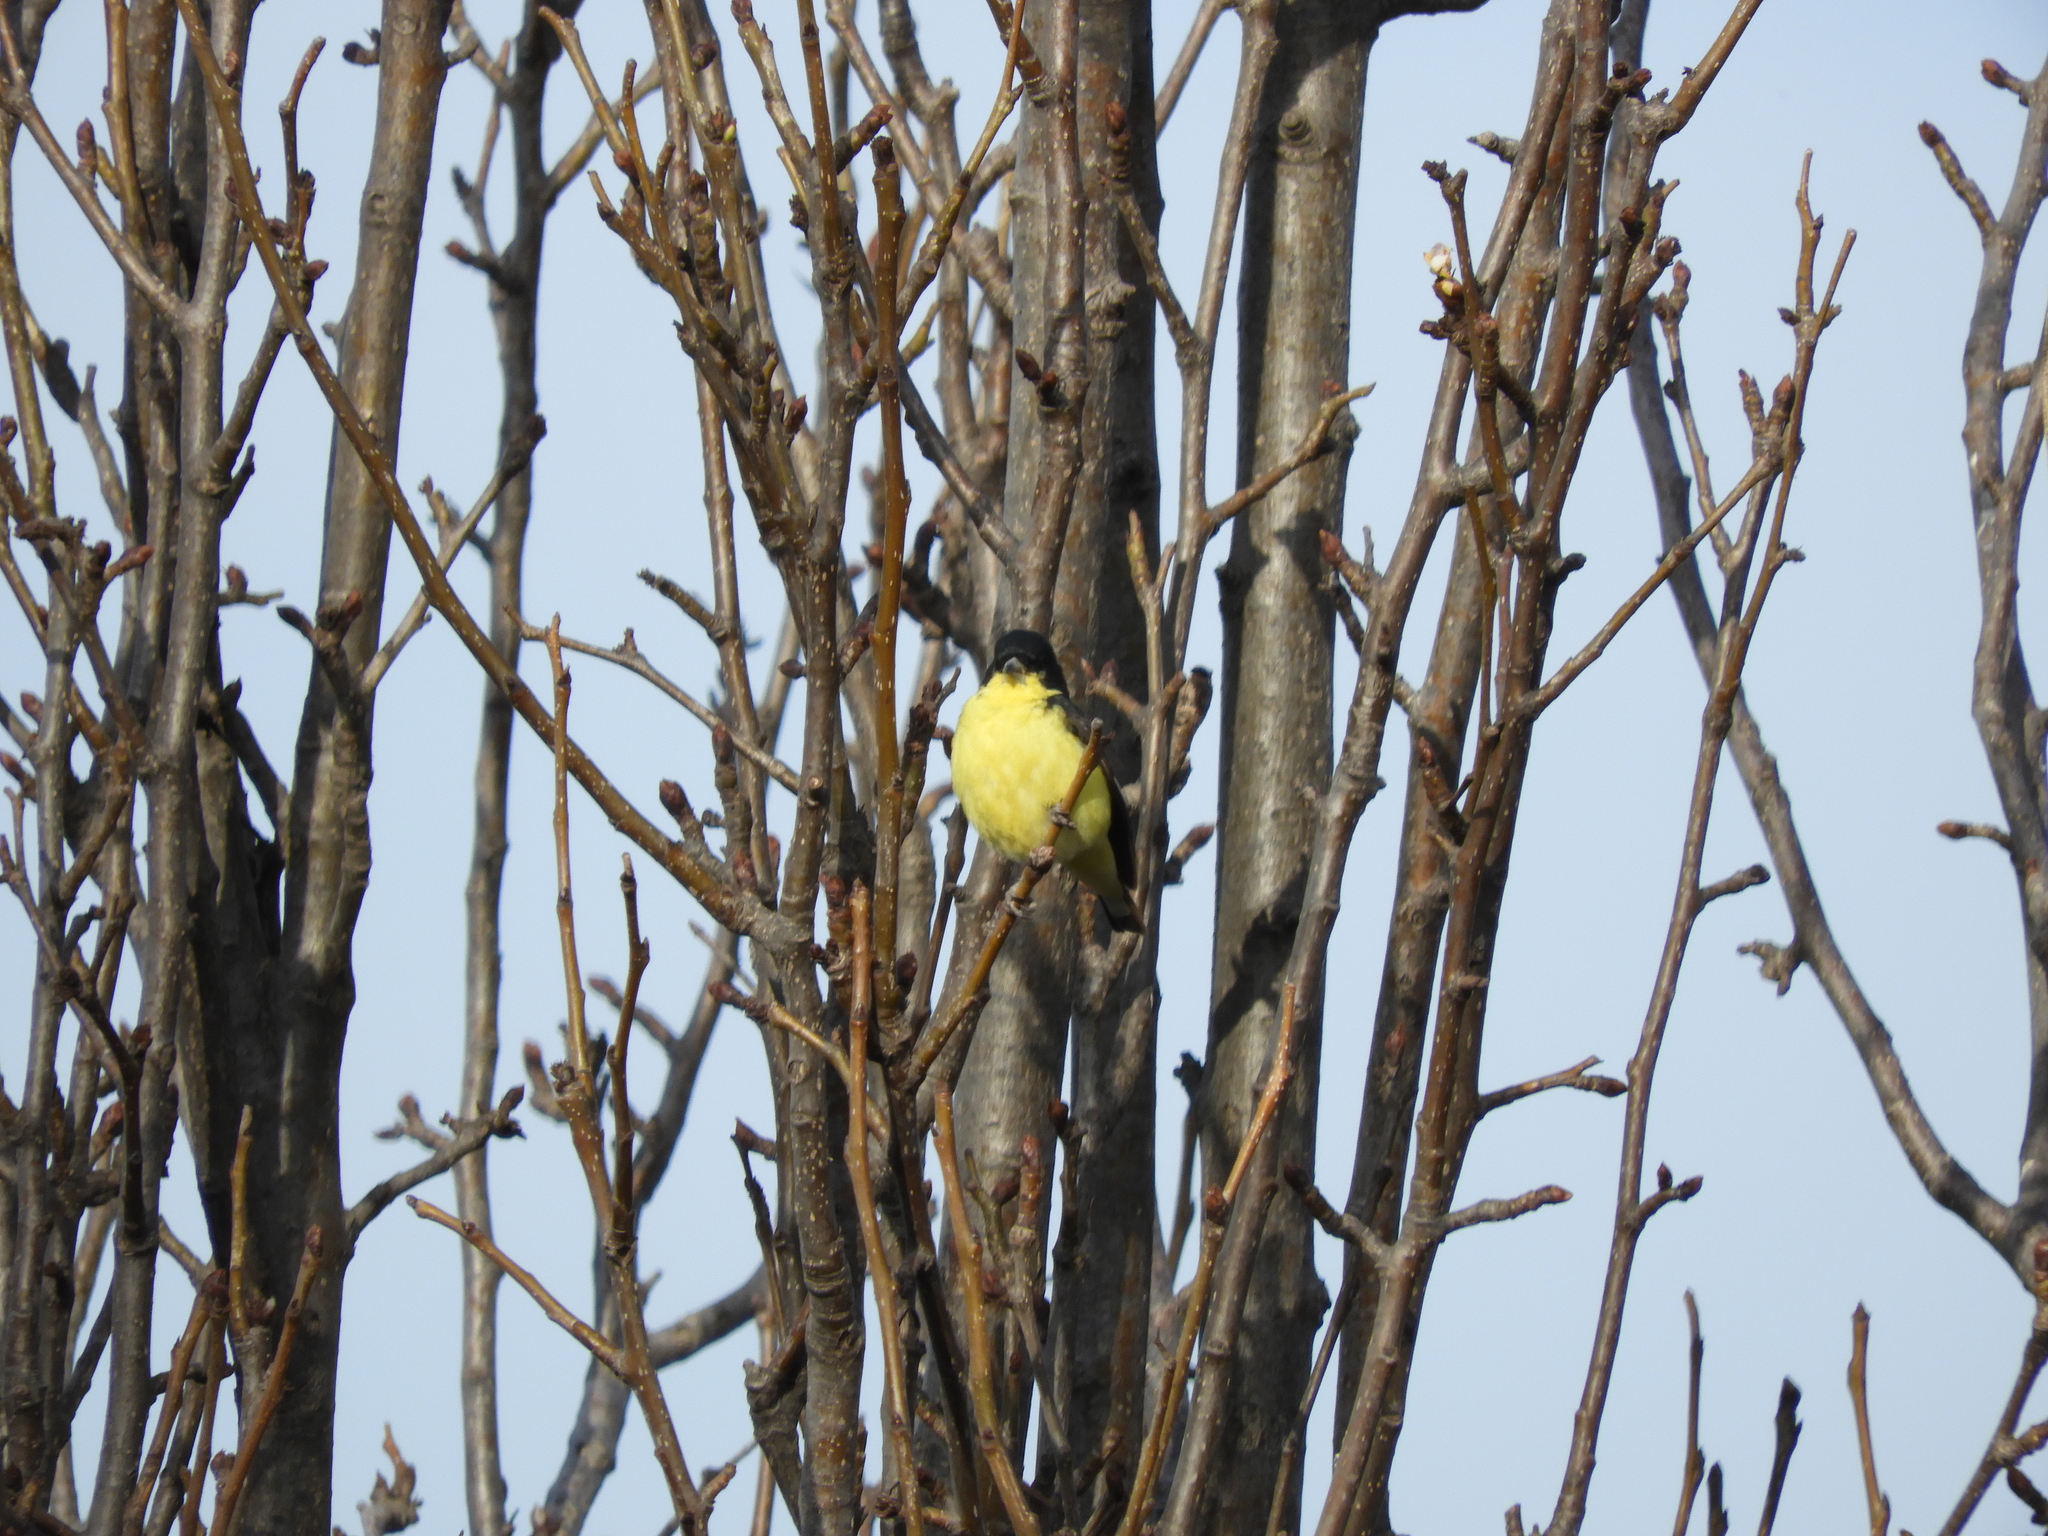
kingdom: Animalia
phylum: Chordata
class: Aves
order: Passeriformes
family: Fringillidae
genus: Spinus
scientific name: Spinus psaltria
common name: Lesser goldfinch
